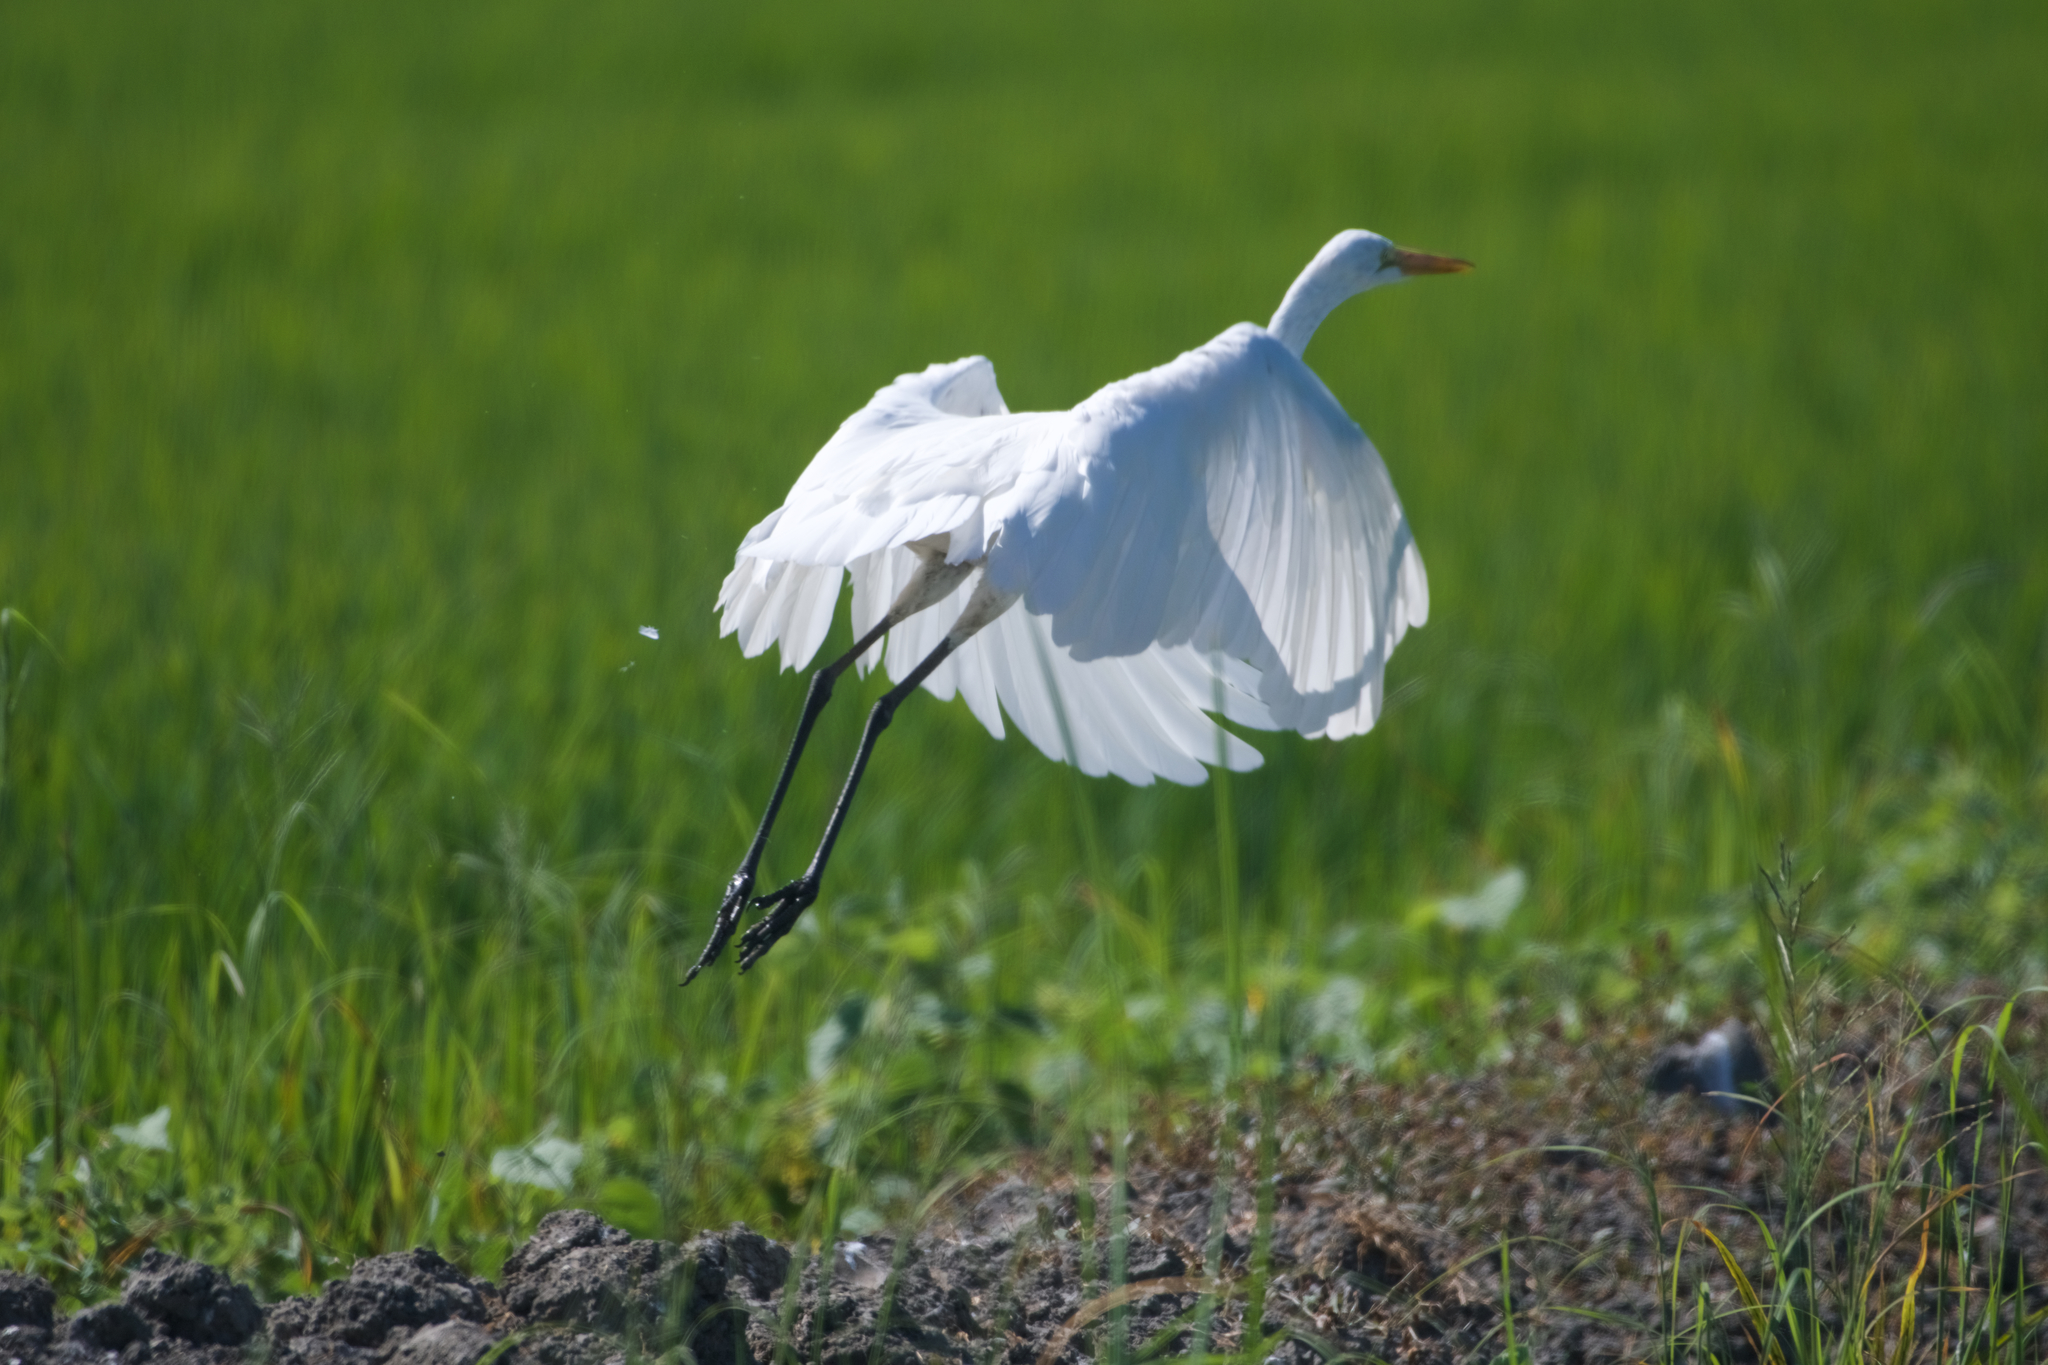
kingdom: Animalia
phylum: Chordata
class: Aves
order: Pelecaniformes
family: Ardeidae
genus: Ardea
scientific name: Ardea alba
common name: Great egret
